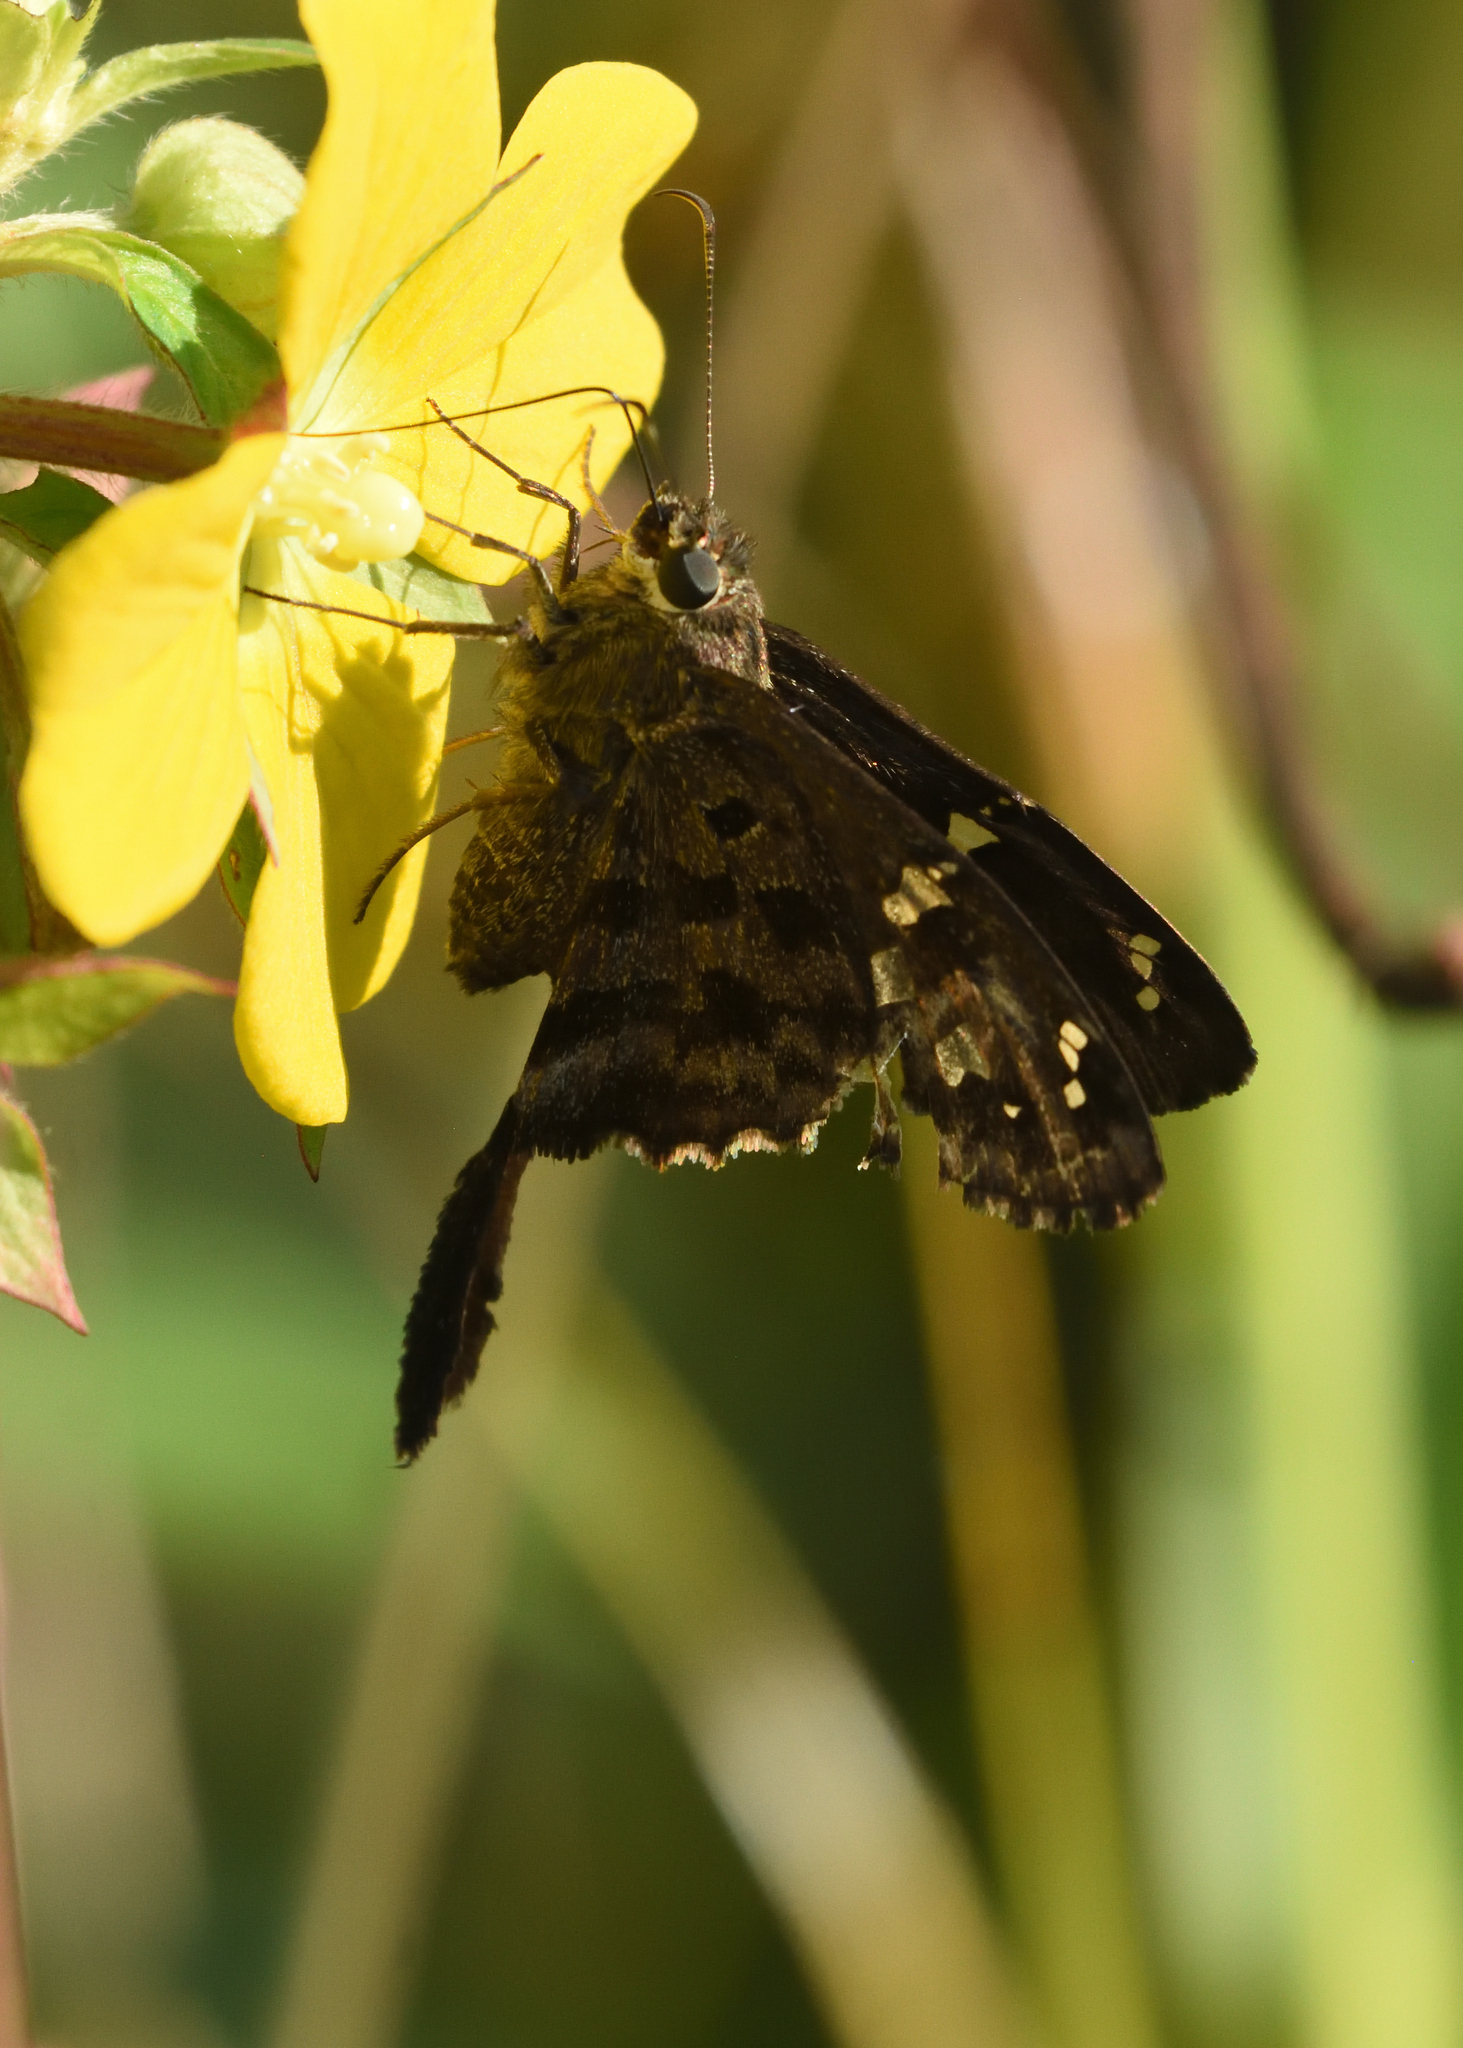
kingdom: Animalia
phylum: Arthropoda
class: Insecta
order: Lepidoptera
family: Hesperiidae
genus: Thorybes
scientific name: Thorybes
